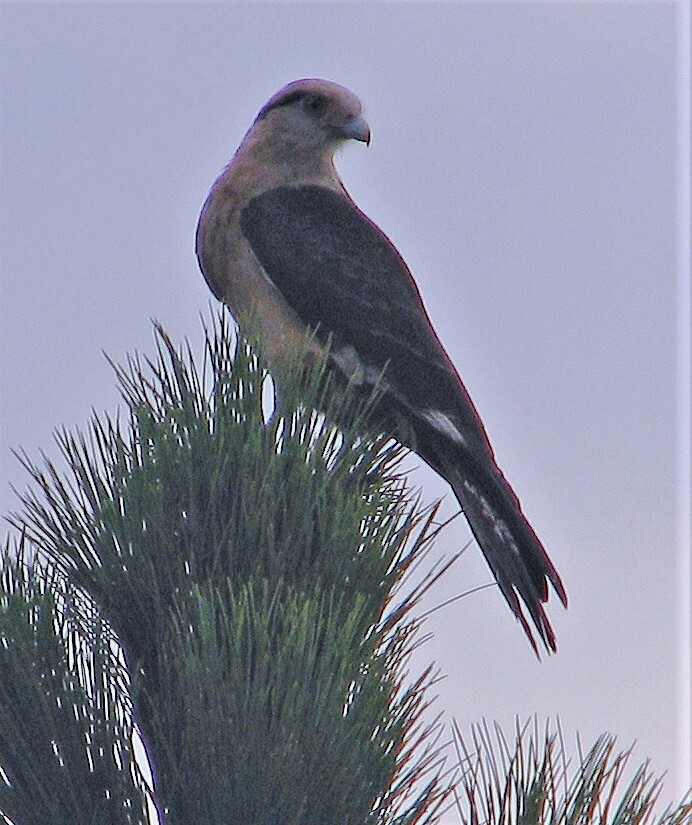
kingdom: Animalia
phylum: Chordata
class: Aves
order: Falconiformes
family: Falconidae
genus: Daptrius
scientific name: Daptrius
